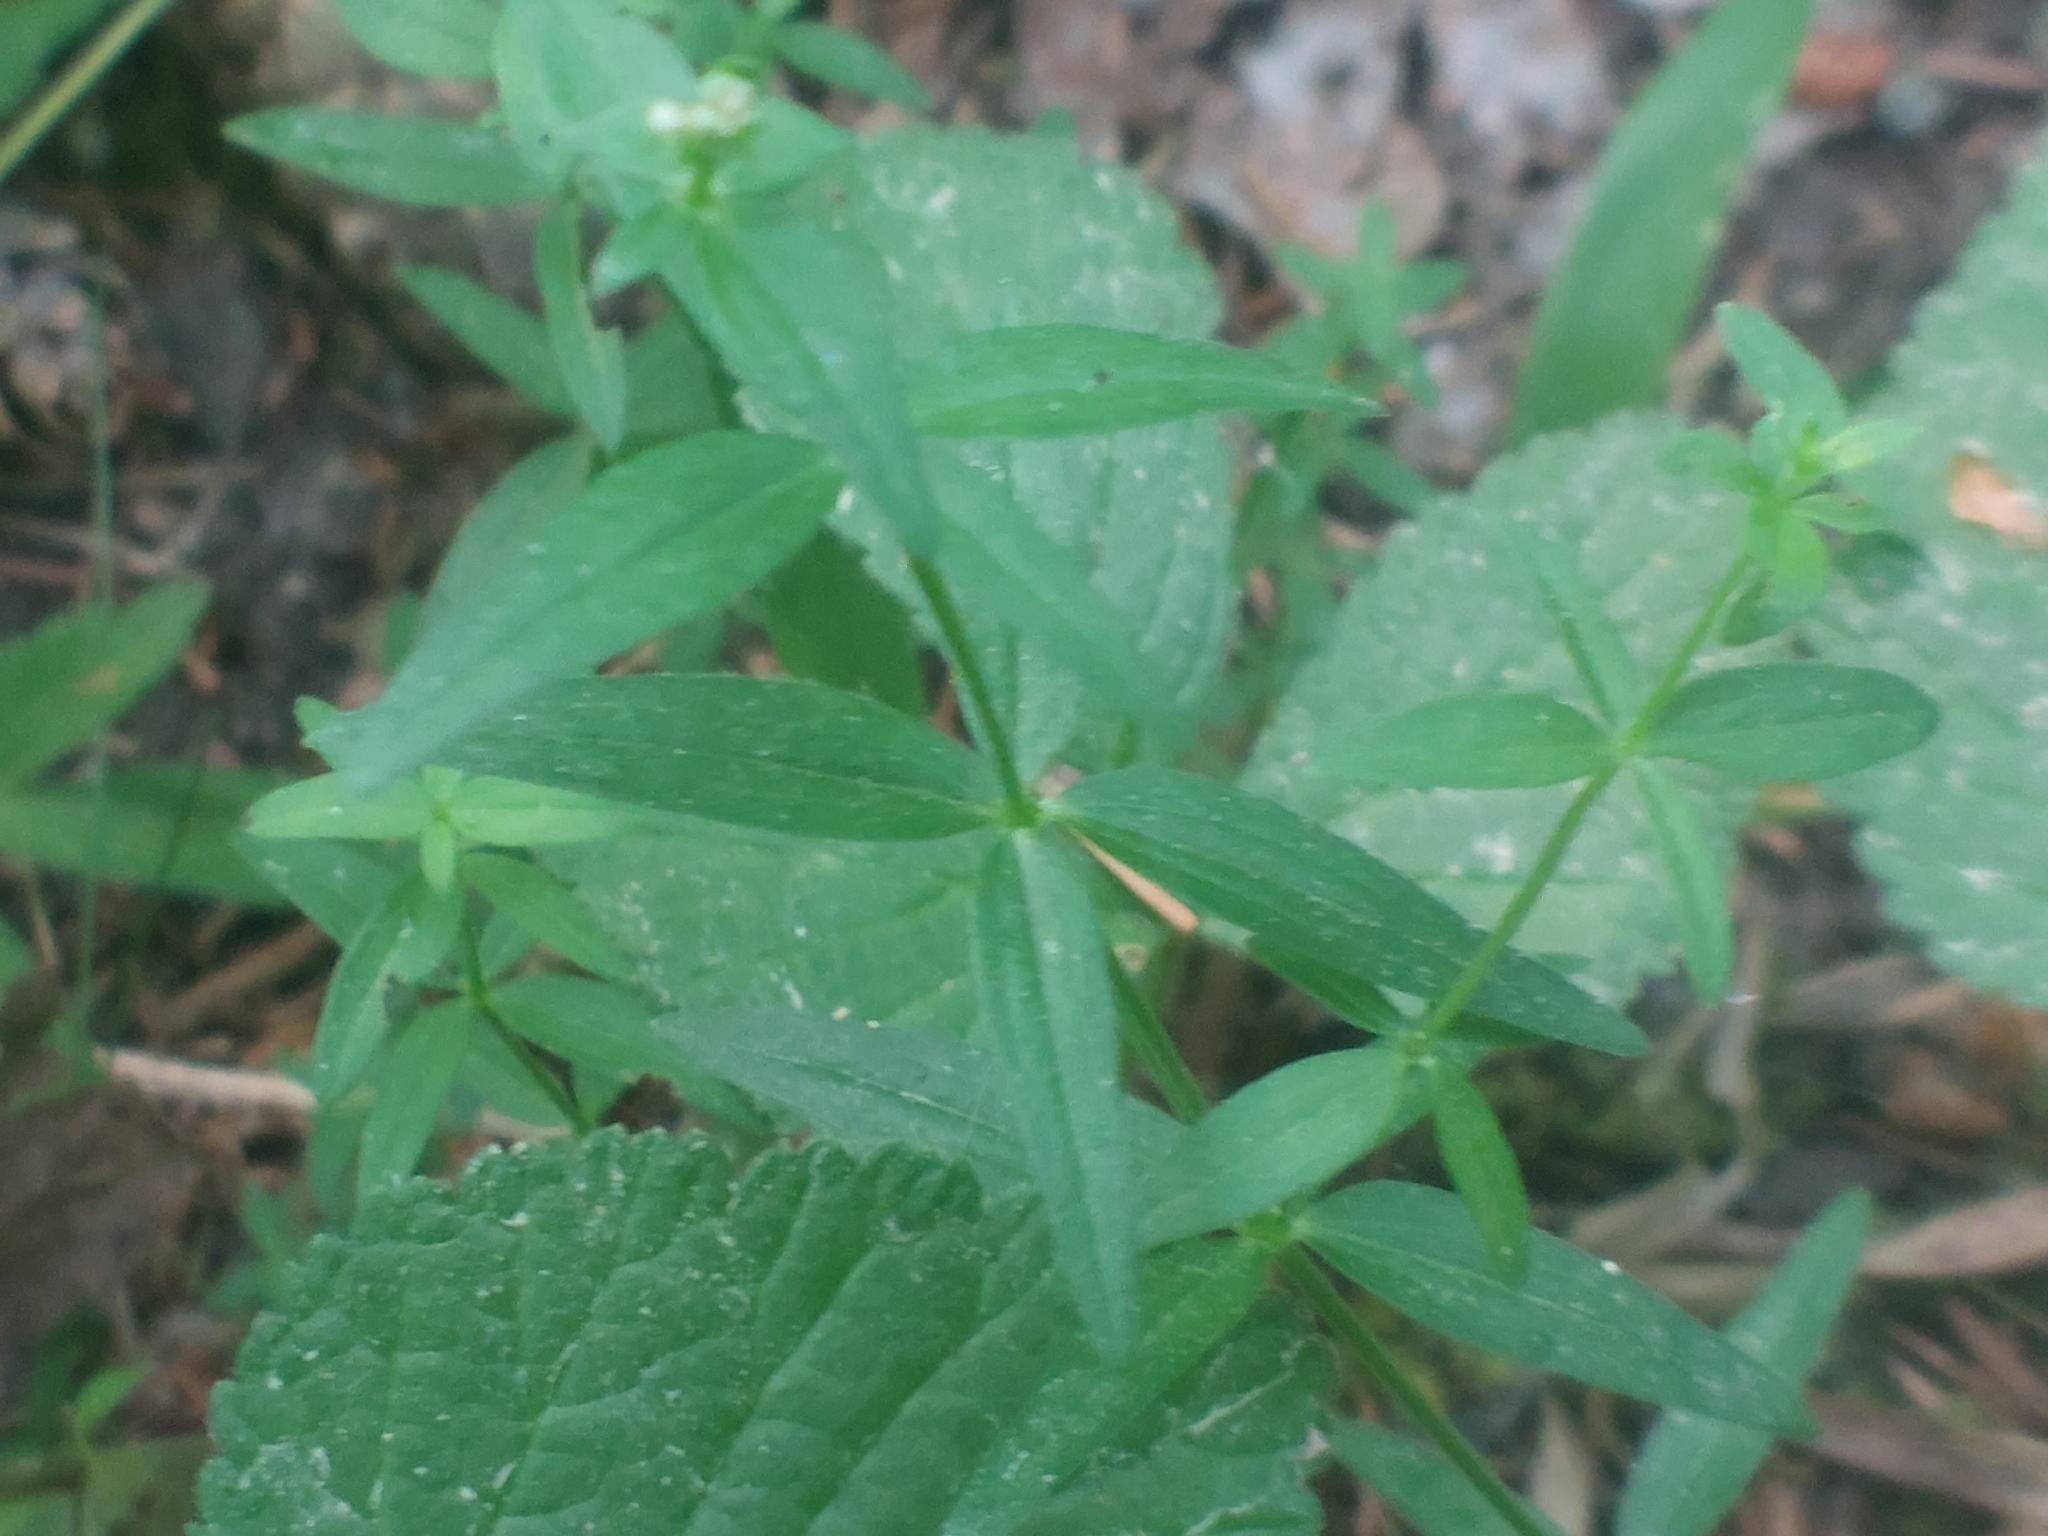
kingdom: Plantae
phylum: Tracheophyta
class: Magnoliopsida
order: Gentianales
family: Rubiaceae
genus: Galium
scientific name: Galium boreale
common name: Northern bedstraw
